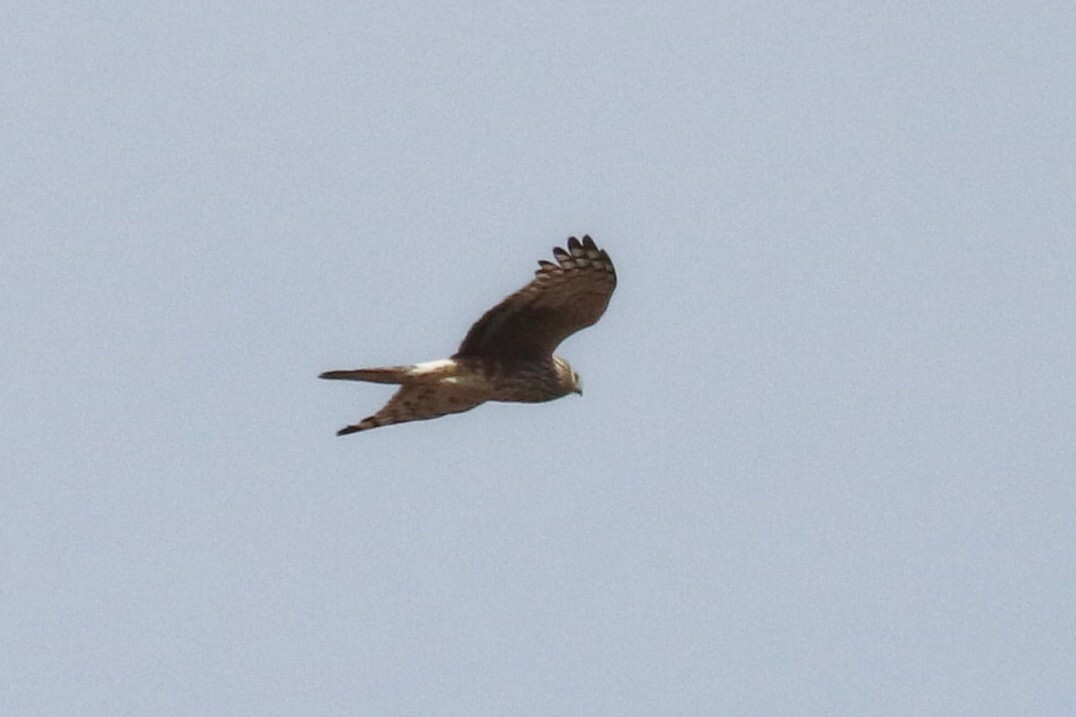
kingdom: Animalia
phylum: Chordata
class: Aves
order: Accipitriformes
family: Accipitridae
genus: Circus
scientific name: Circus cyaneus
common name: Hen harrier
